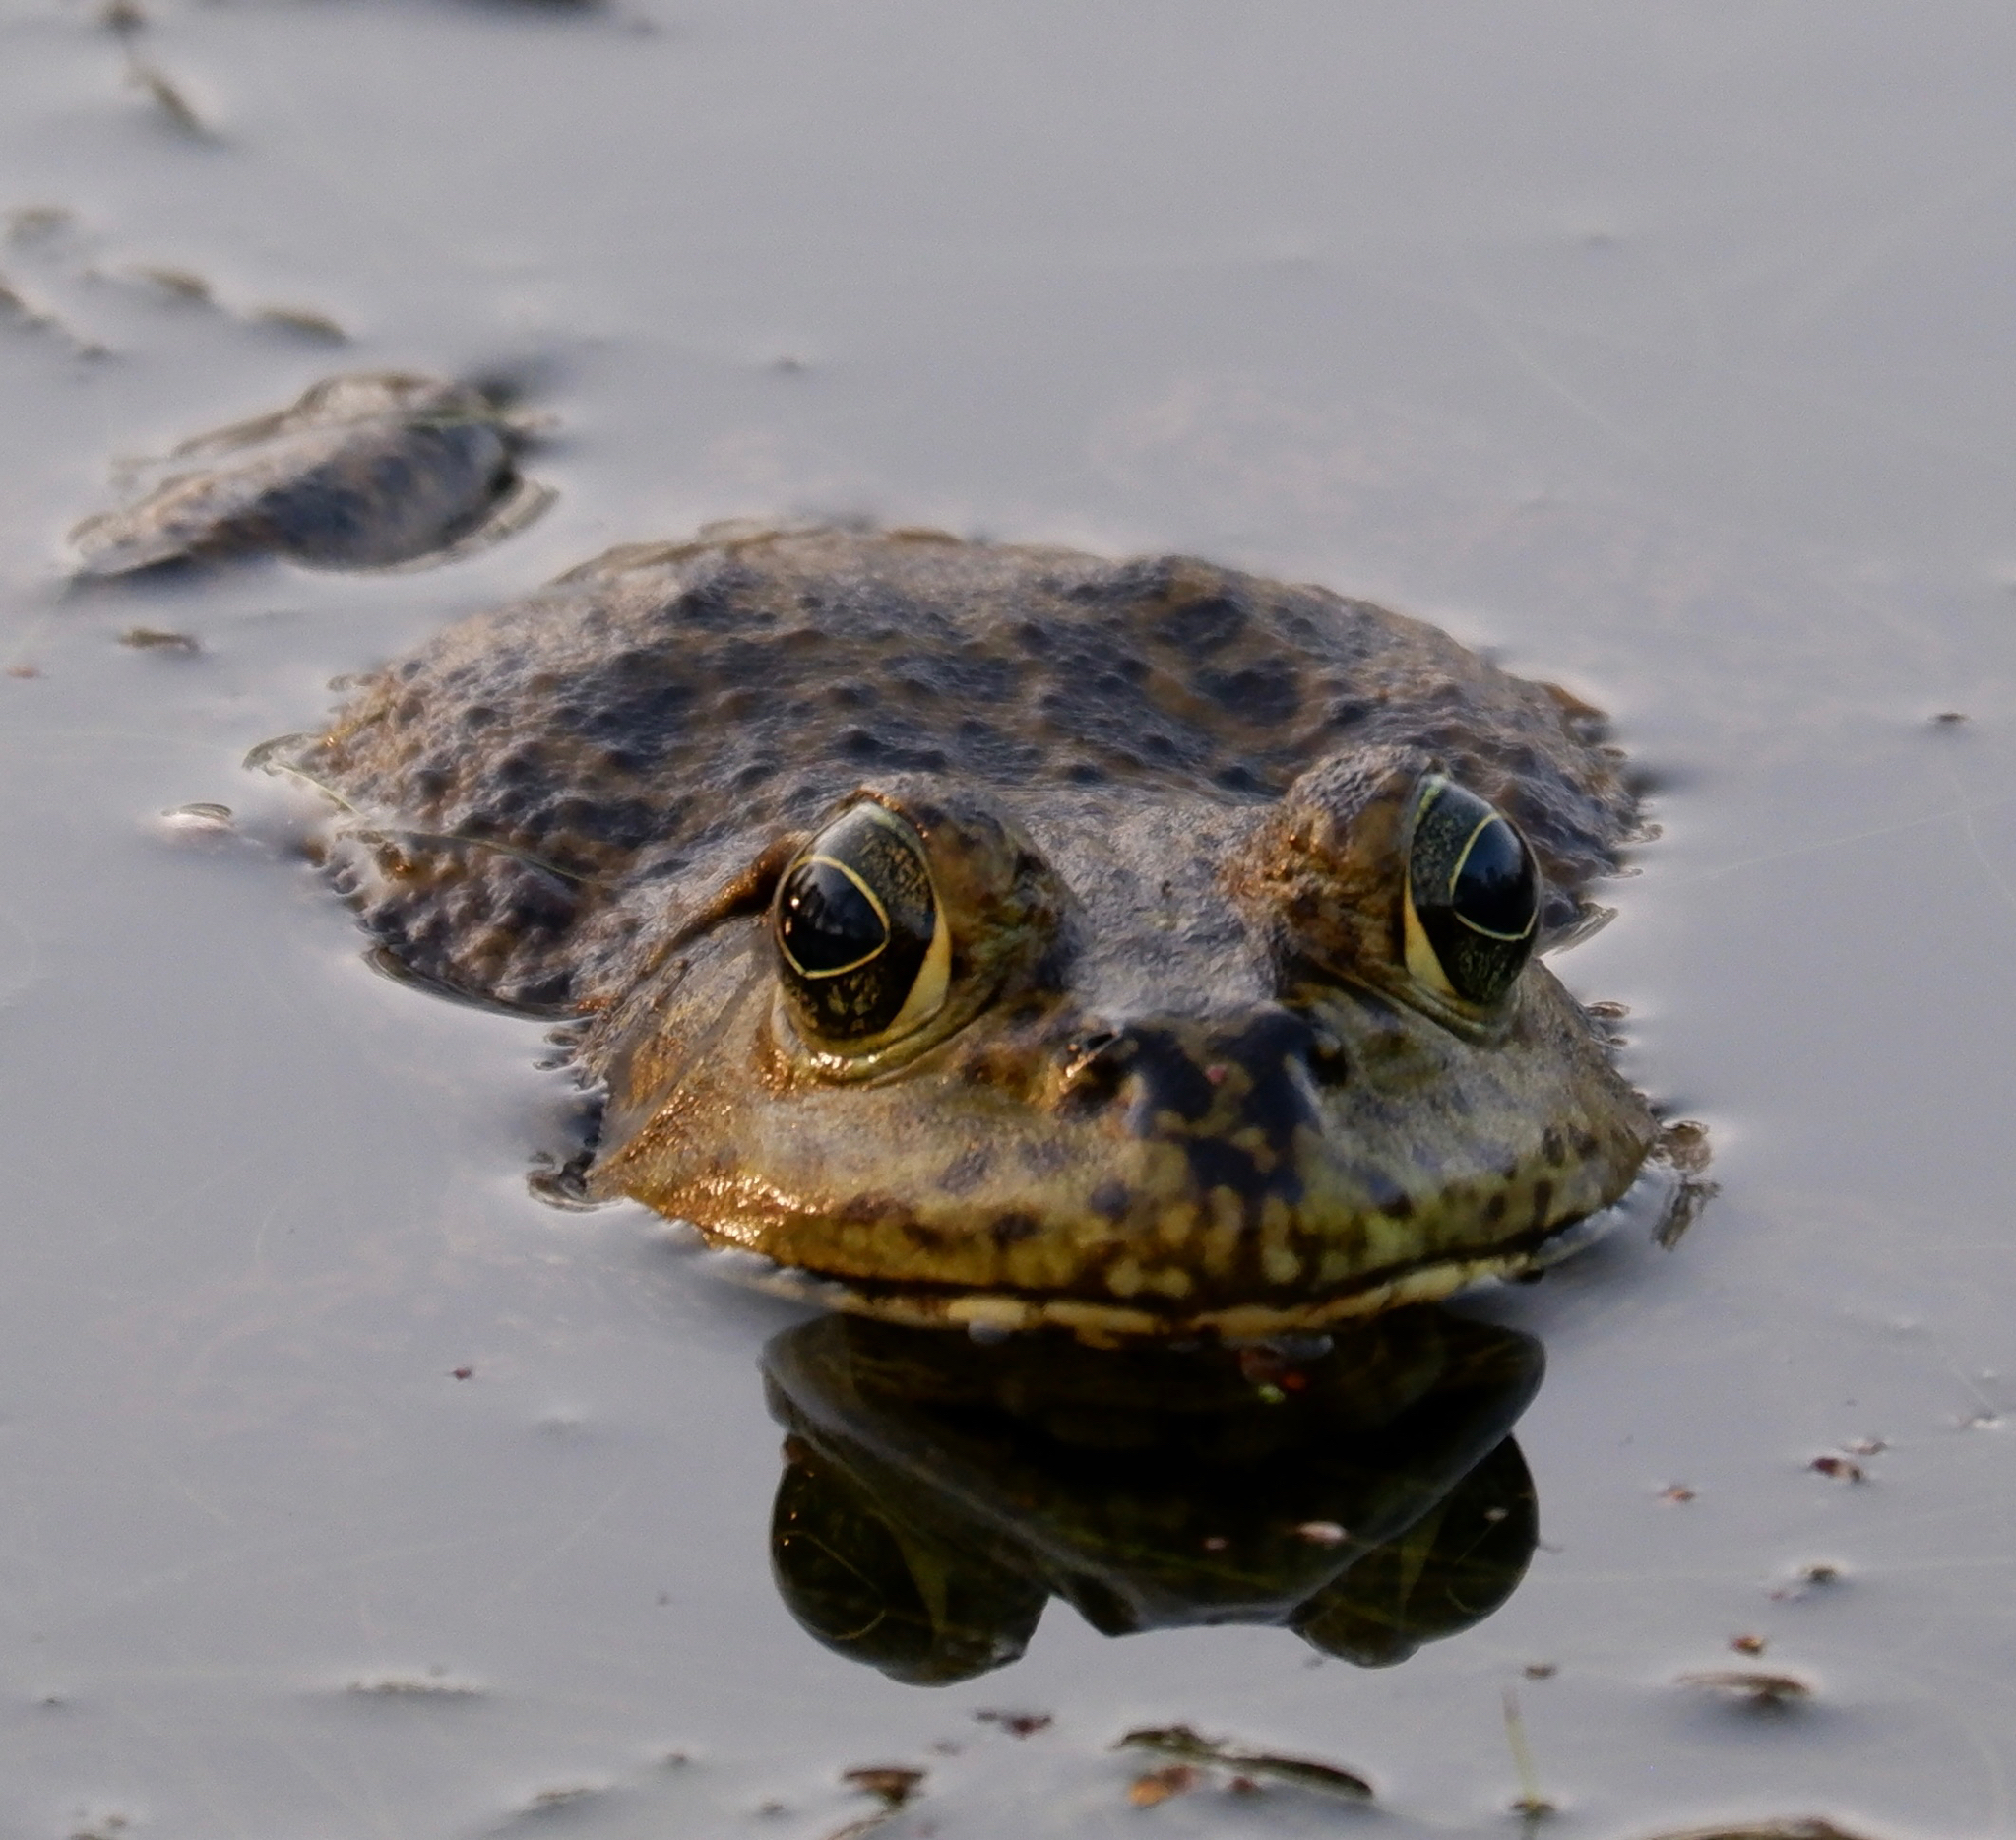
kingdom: Animalia
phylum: Chordata
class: Amphibia
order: Anura
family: Ranidae
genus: Lithobates
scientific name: Lithobates catesbeianus
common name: American bullfrog
